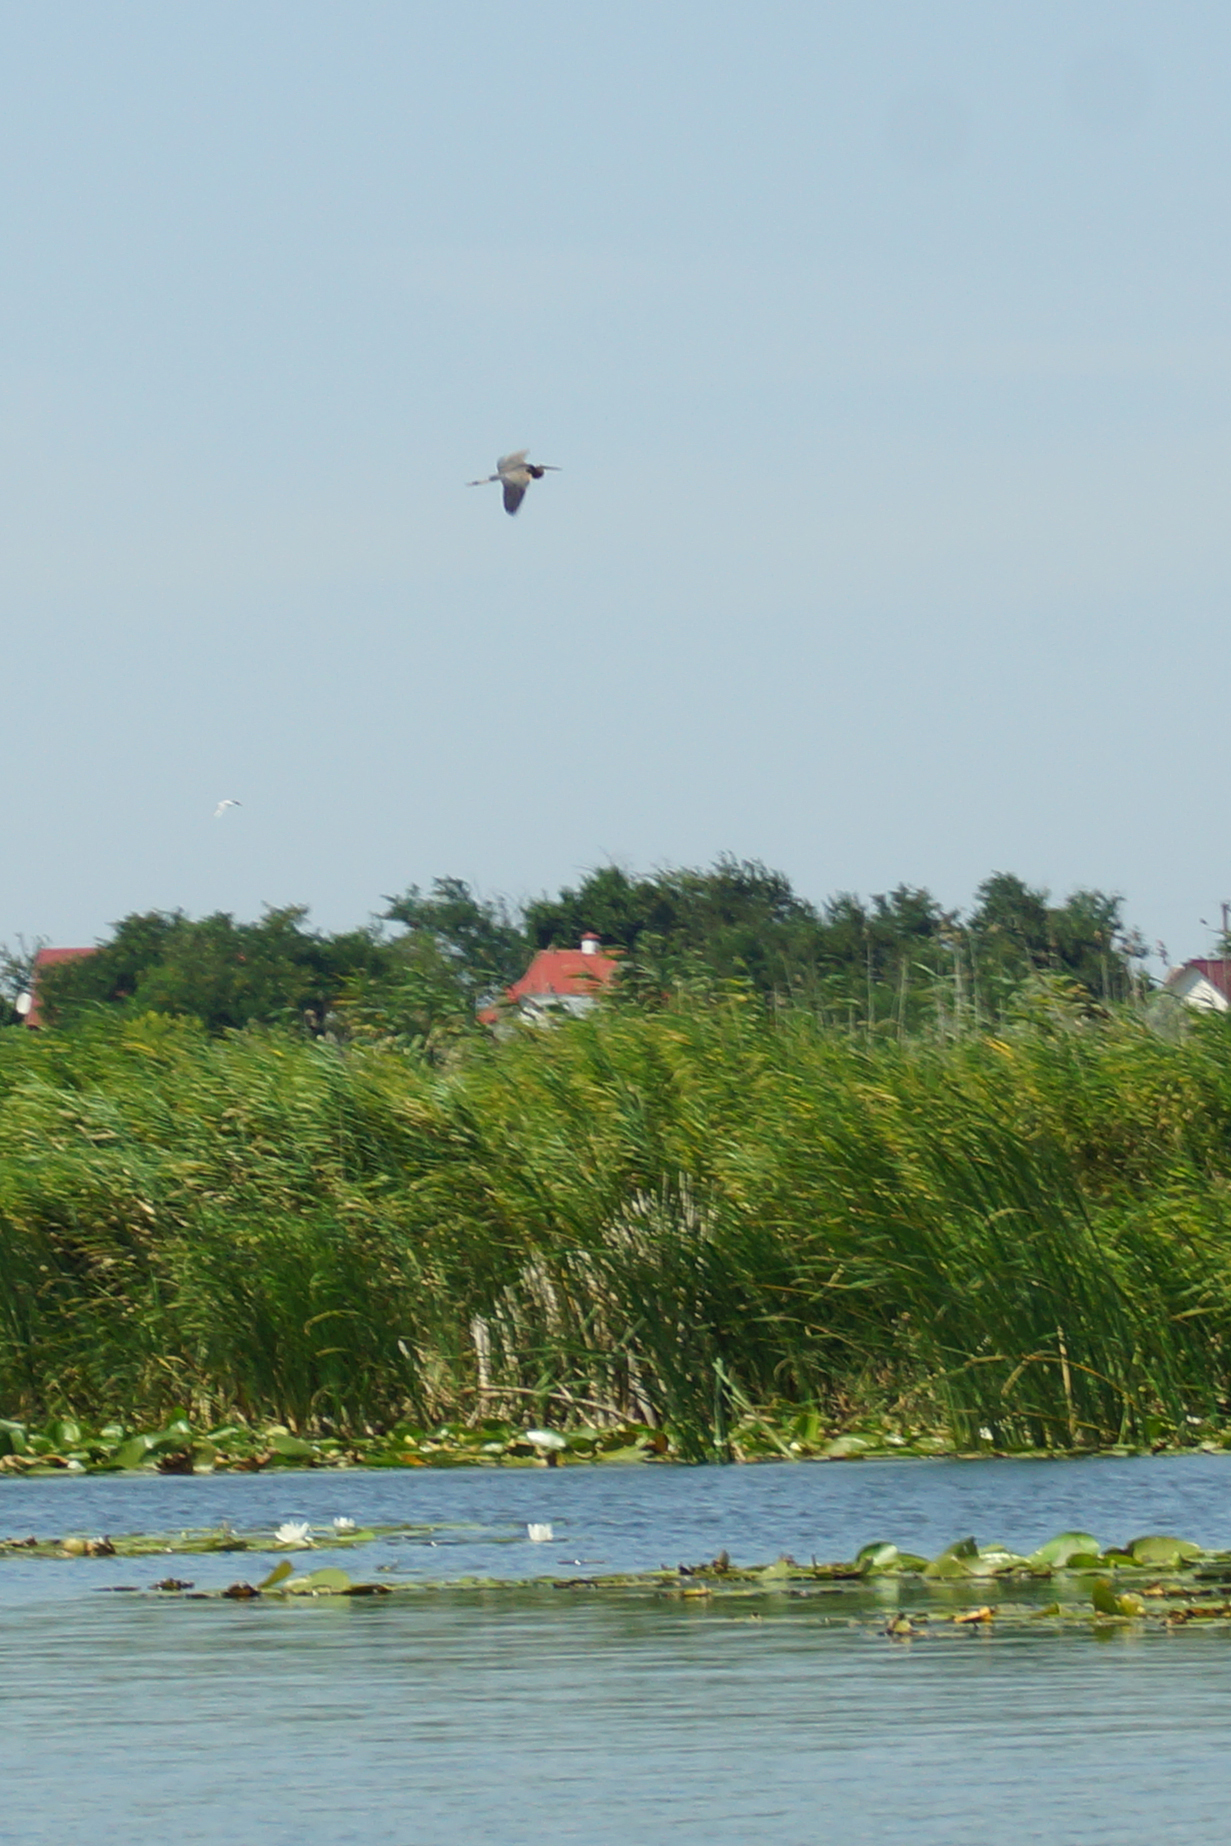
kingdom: Animalia
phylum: Chordata
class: Aves
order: Pelecaniformes
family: Ardeidae
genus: Ardea
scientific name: Ardea purpurea
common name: Purple heron
